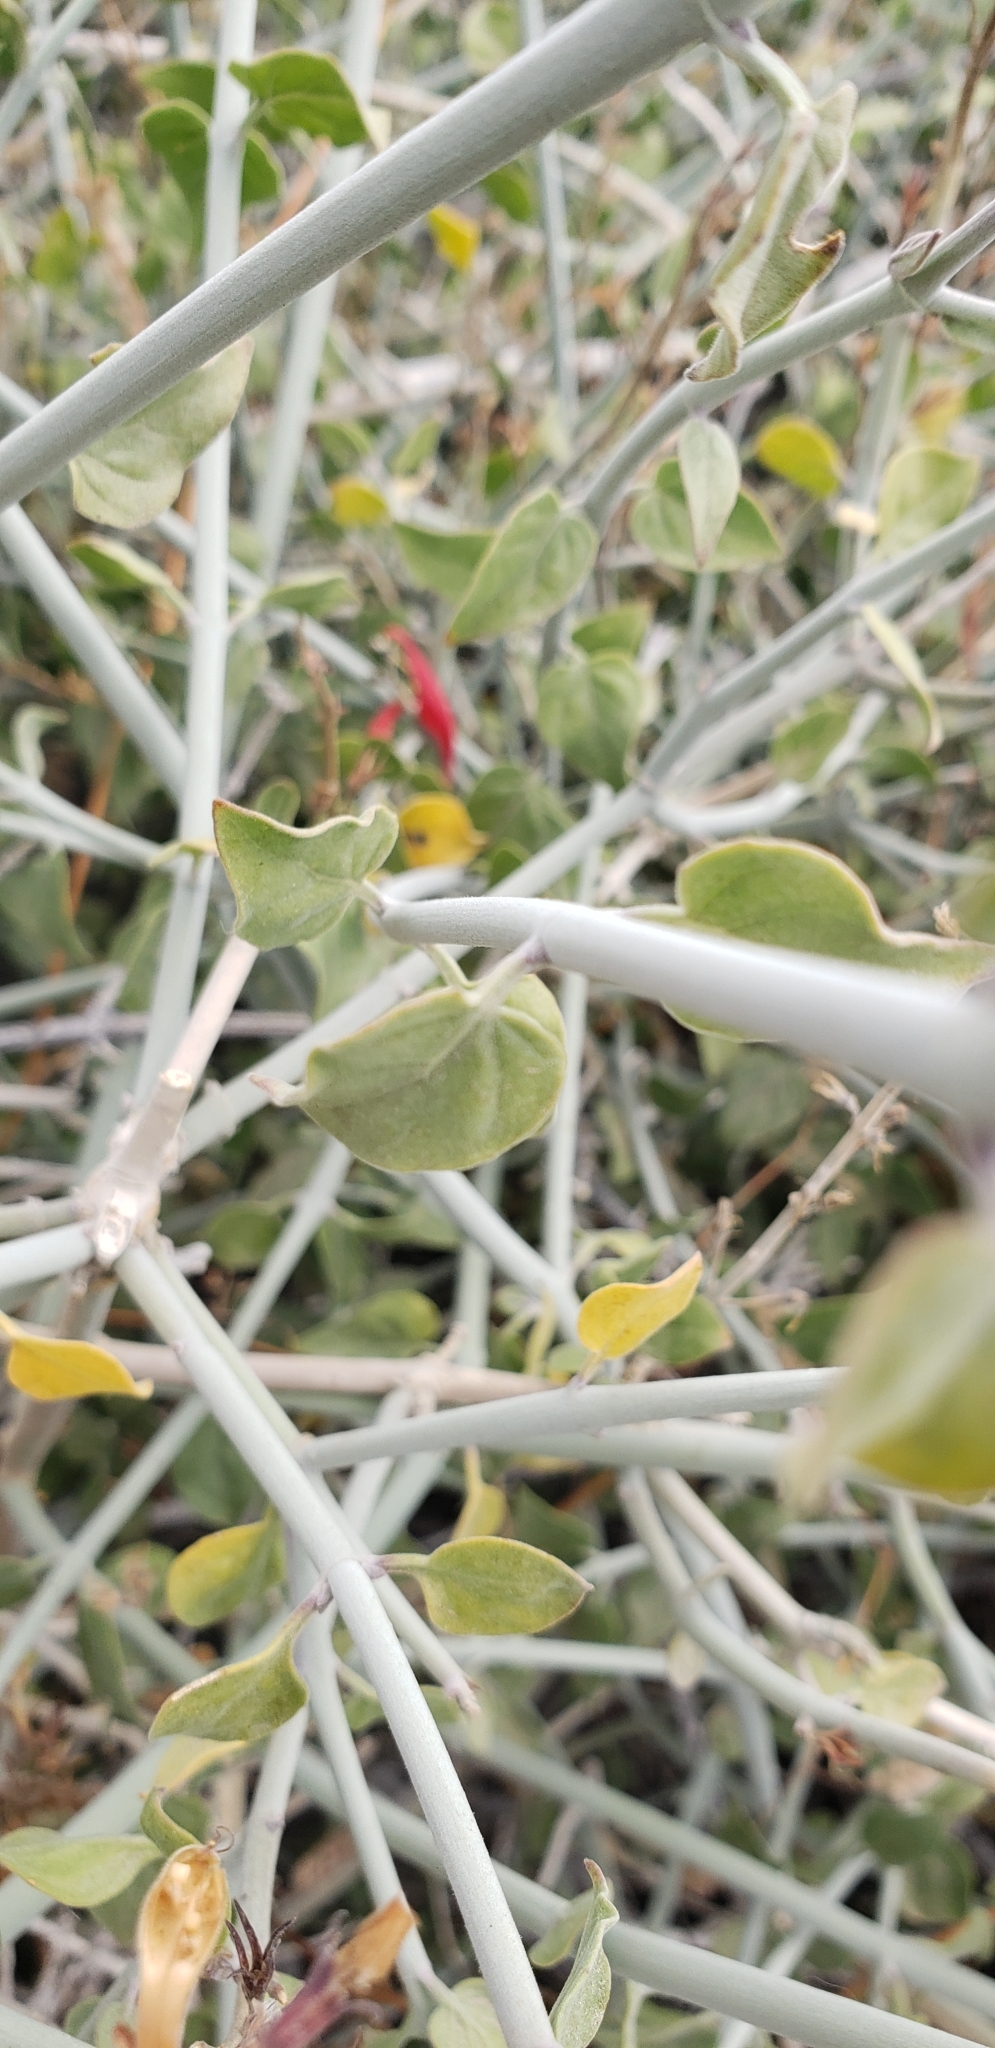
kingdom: Plantae
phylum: Tracheophyta
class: Magnoliopsida
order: Lamiales
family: Acanthaceae
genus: Justicia
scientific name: Justicia californica
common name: Chuparosa-honeysuckle
